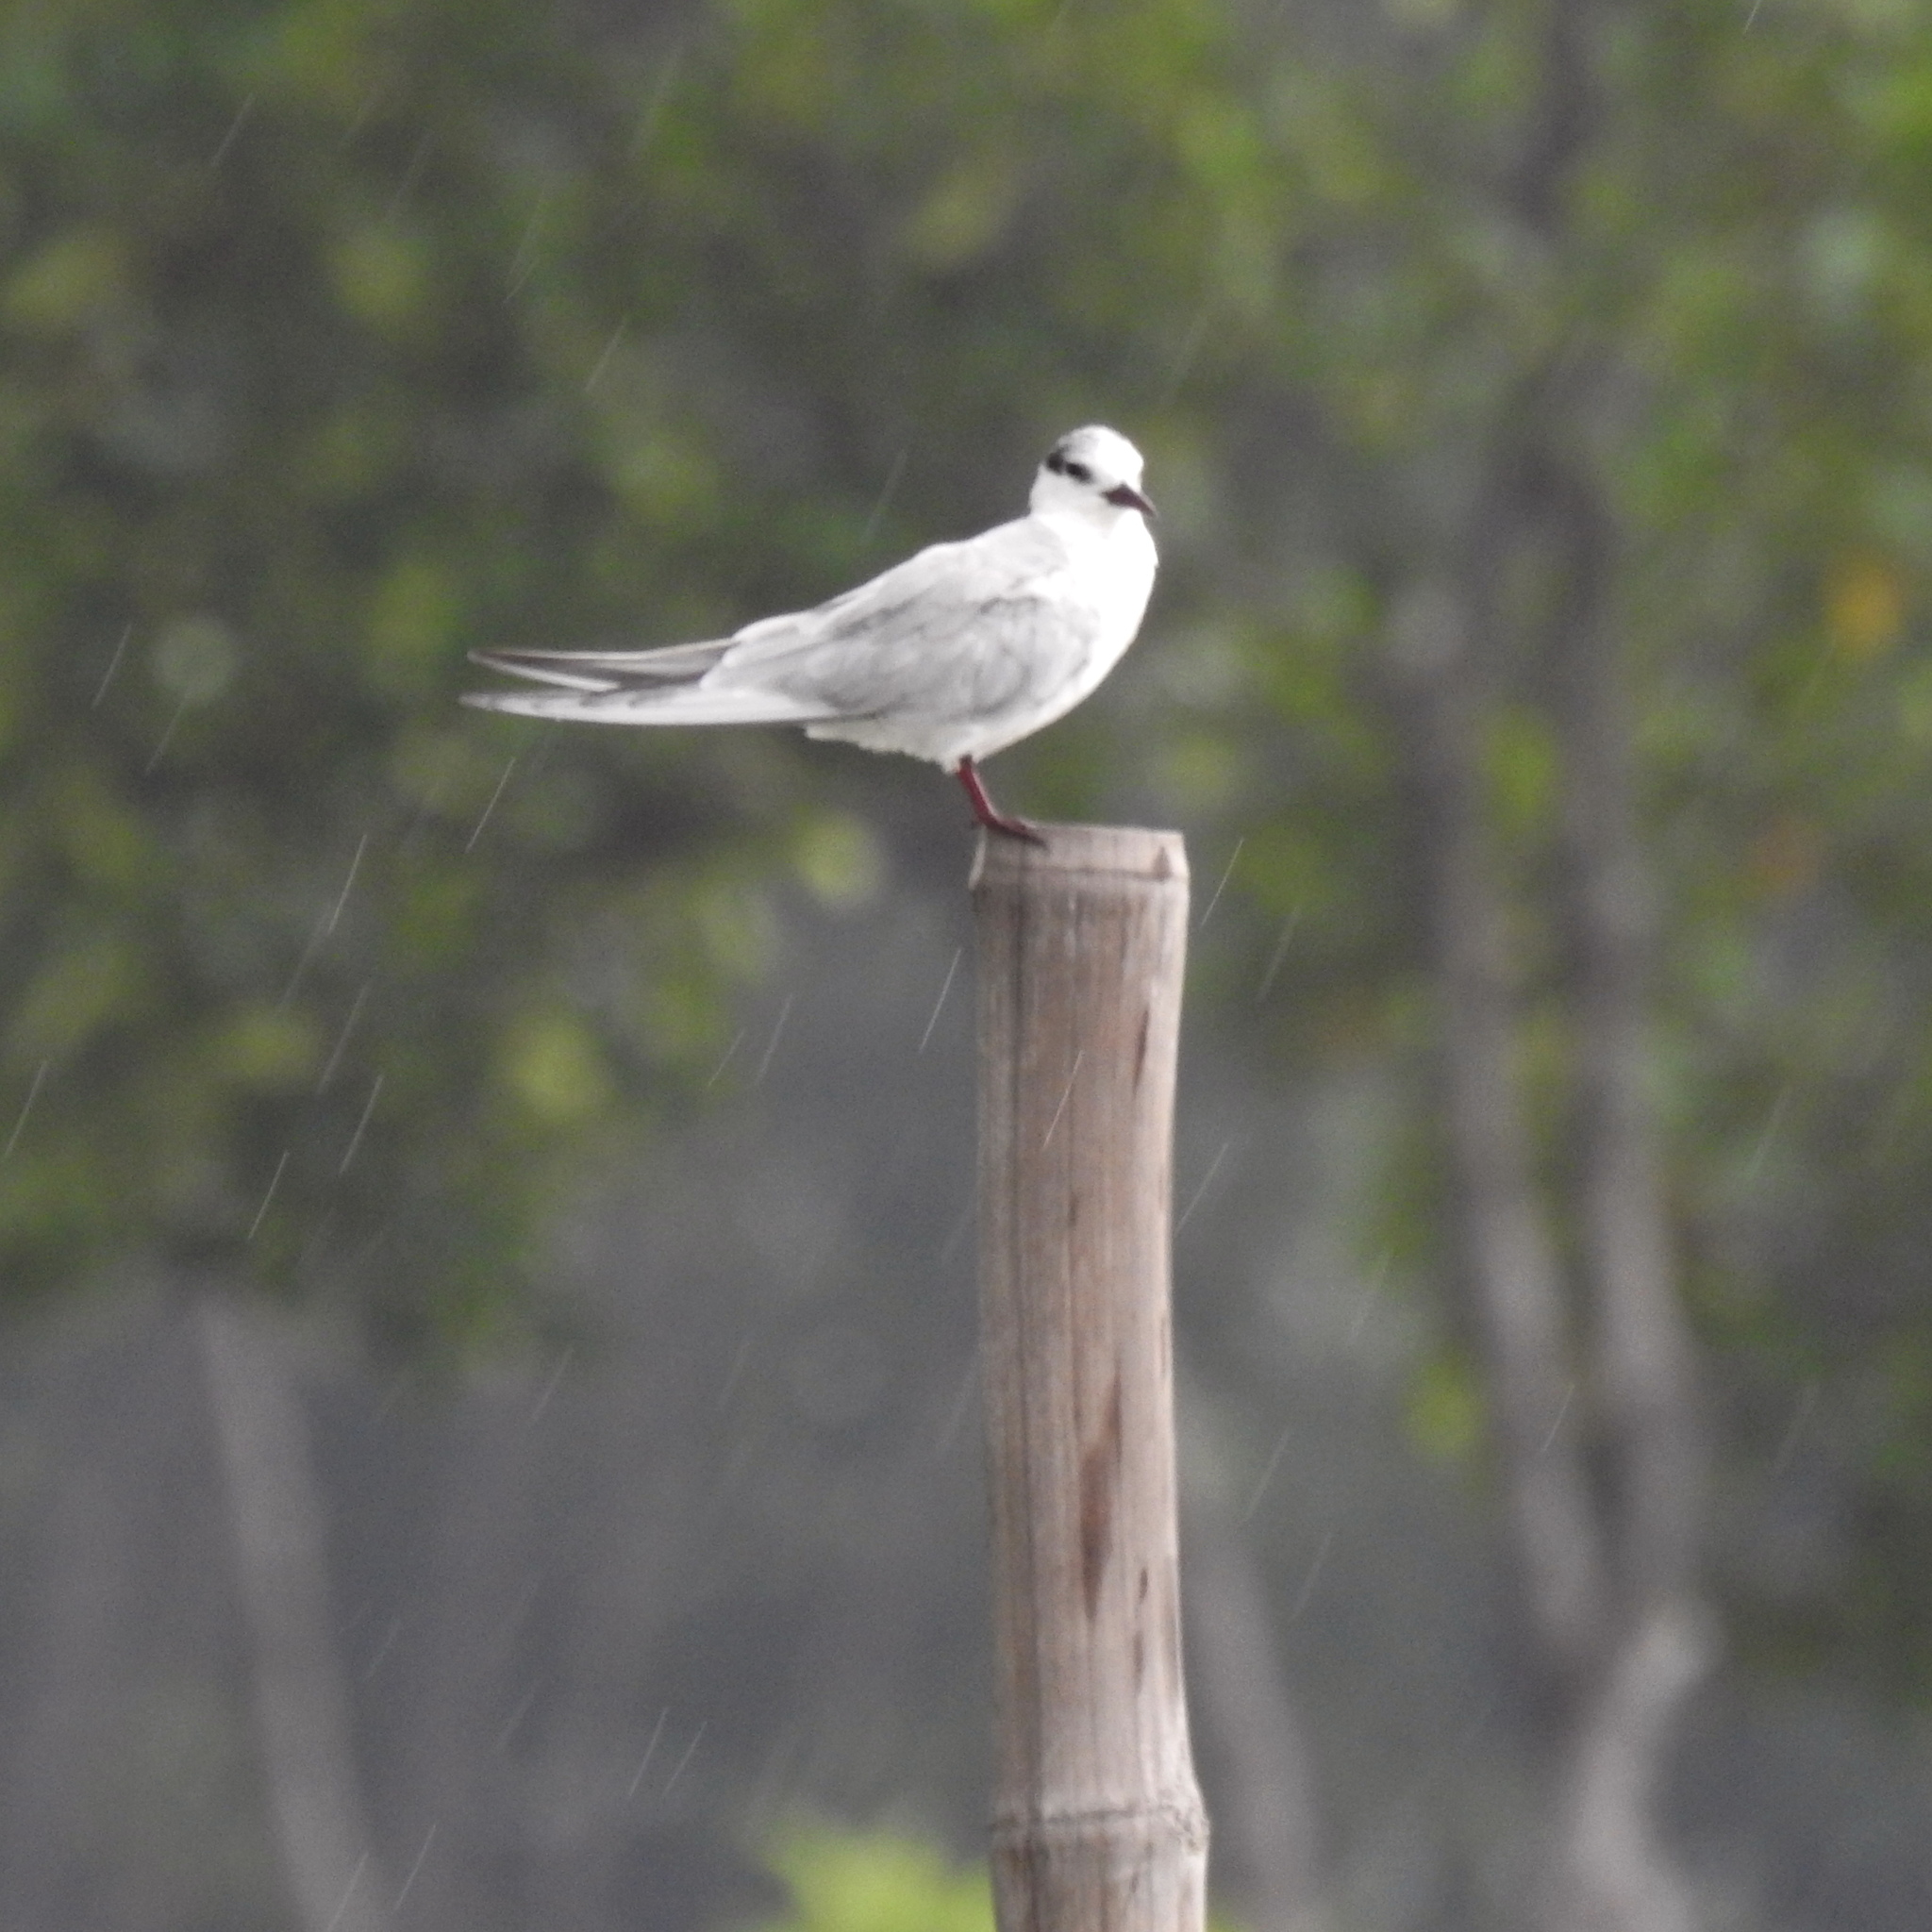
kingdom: Animalia
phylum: Chordata
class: Aves
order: Charadriiformes
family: Laridae
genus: Chlidonias
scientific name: Chlidonias hybrida
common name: Whiskered tern
